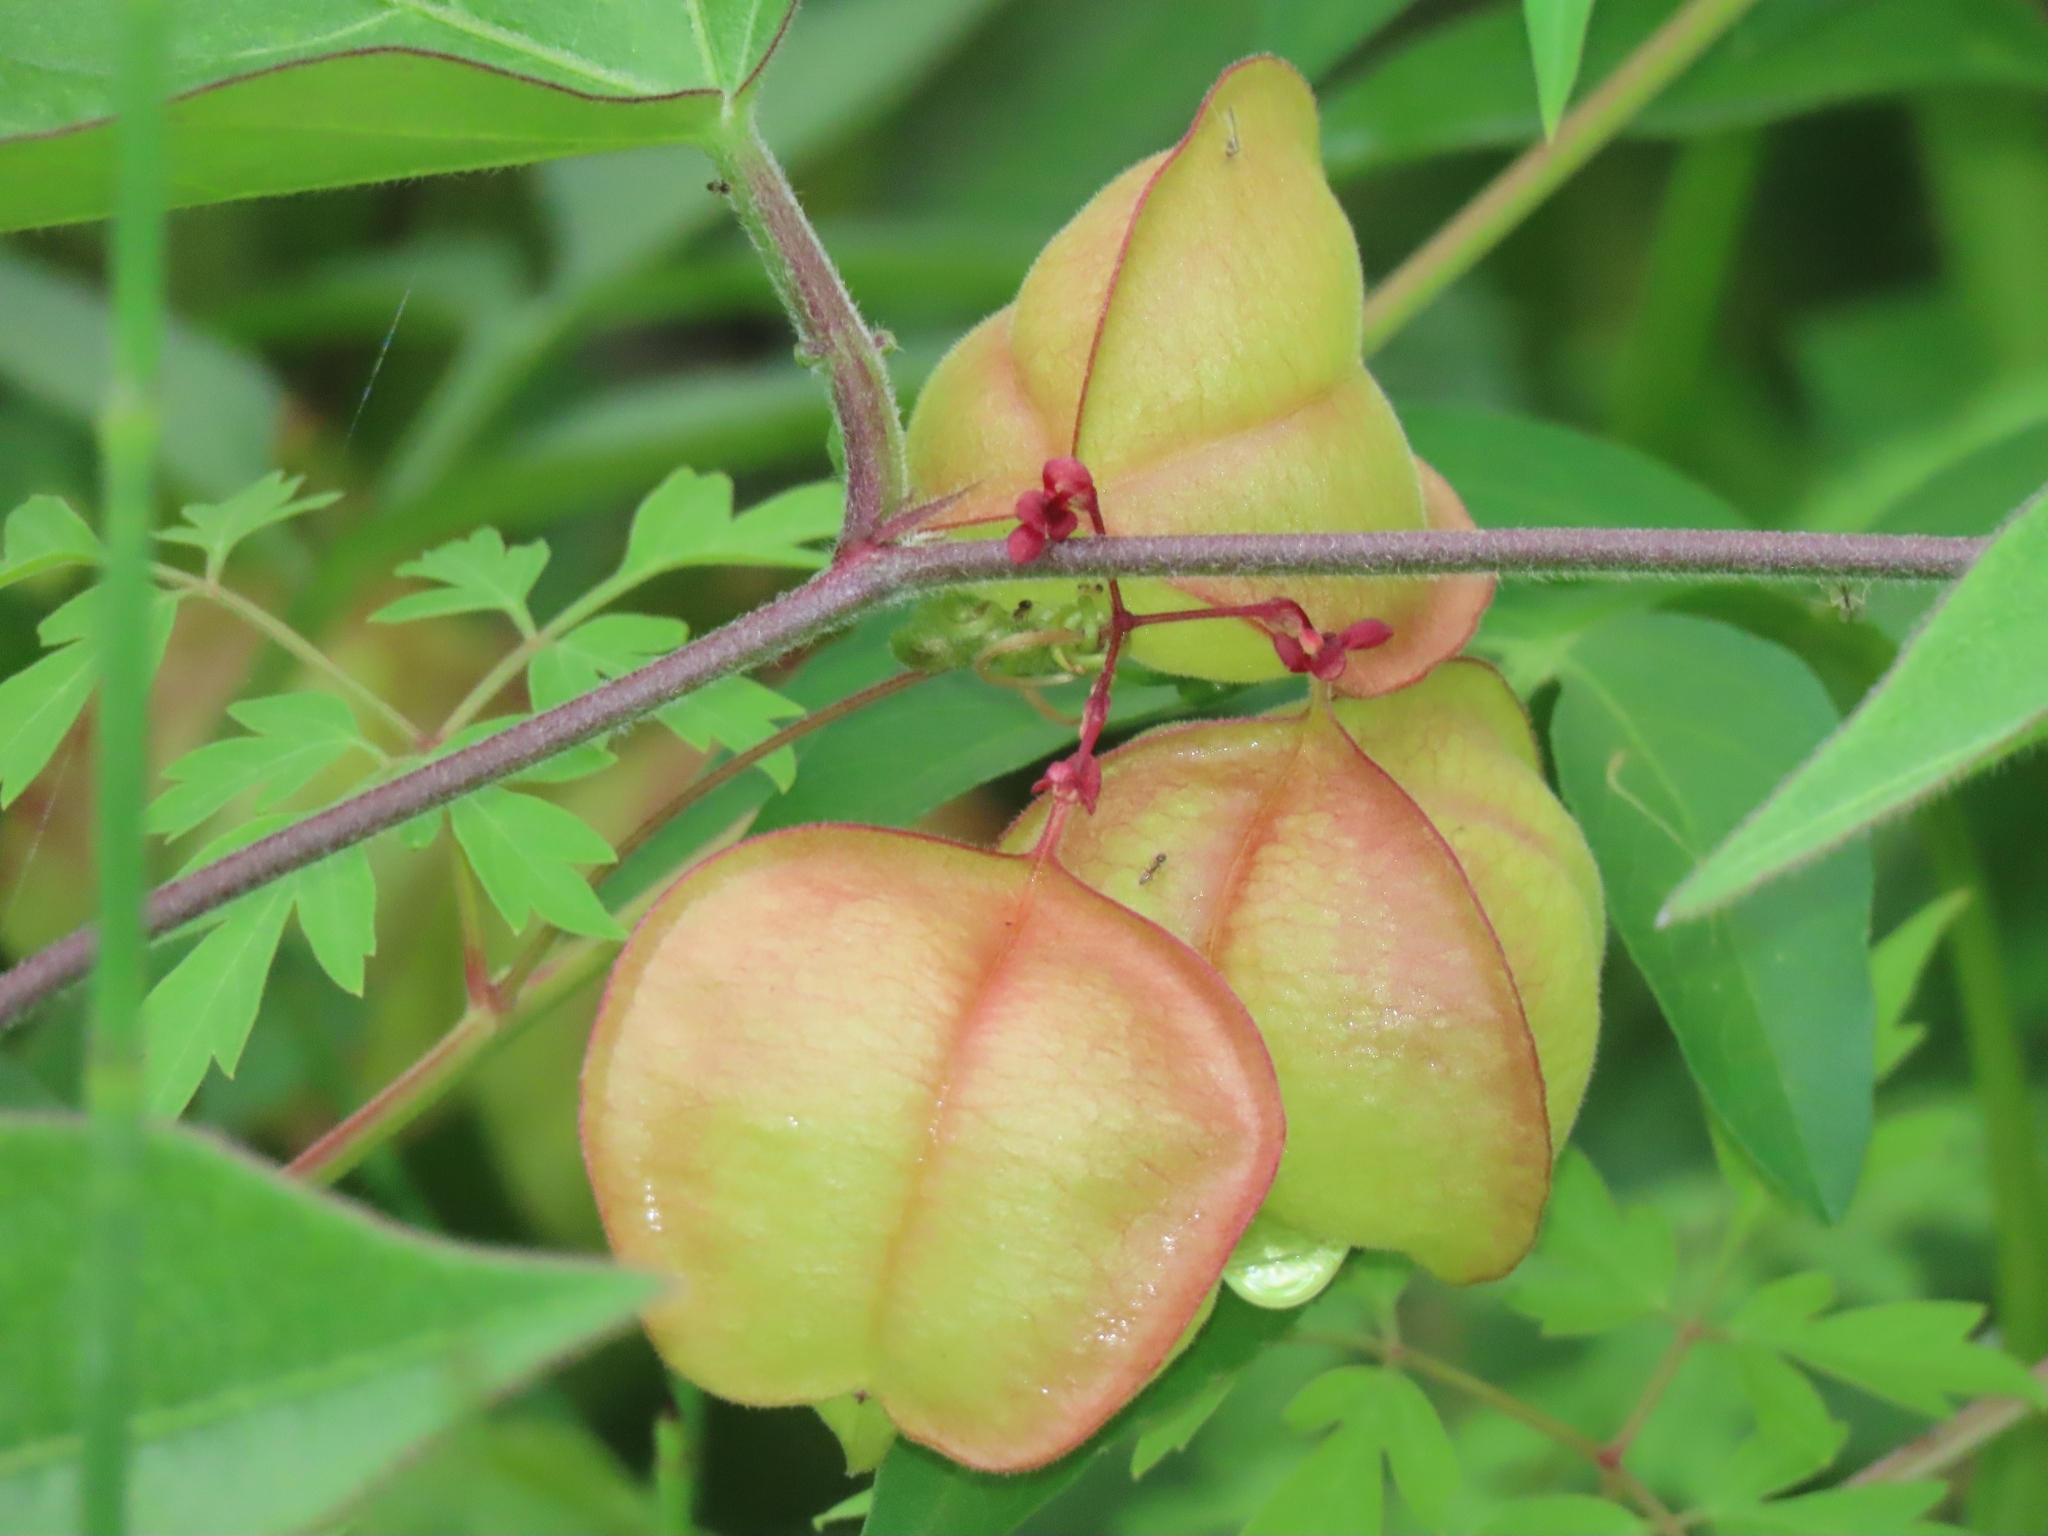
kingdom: Plantae
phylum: Tracheophyta
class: Magnoliopsida
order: Sapindales
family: Sapindaceae
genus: Cardiospermum
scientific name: Cardiospermum halicacabum
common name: Balloon vine
